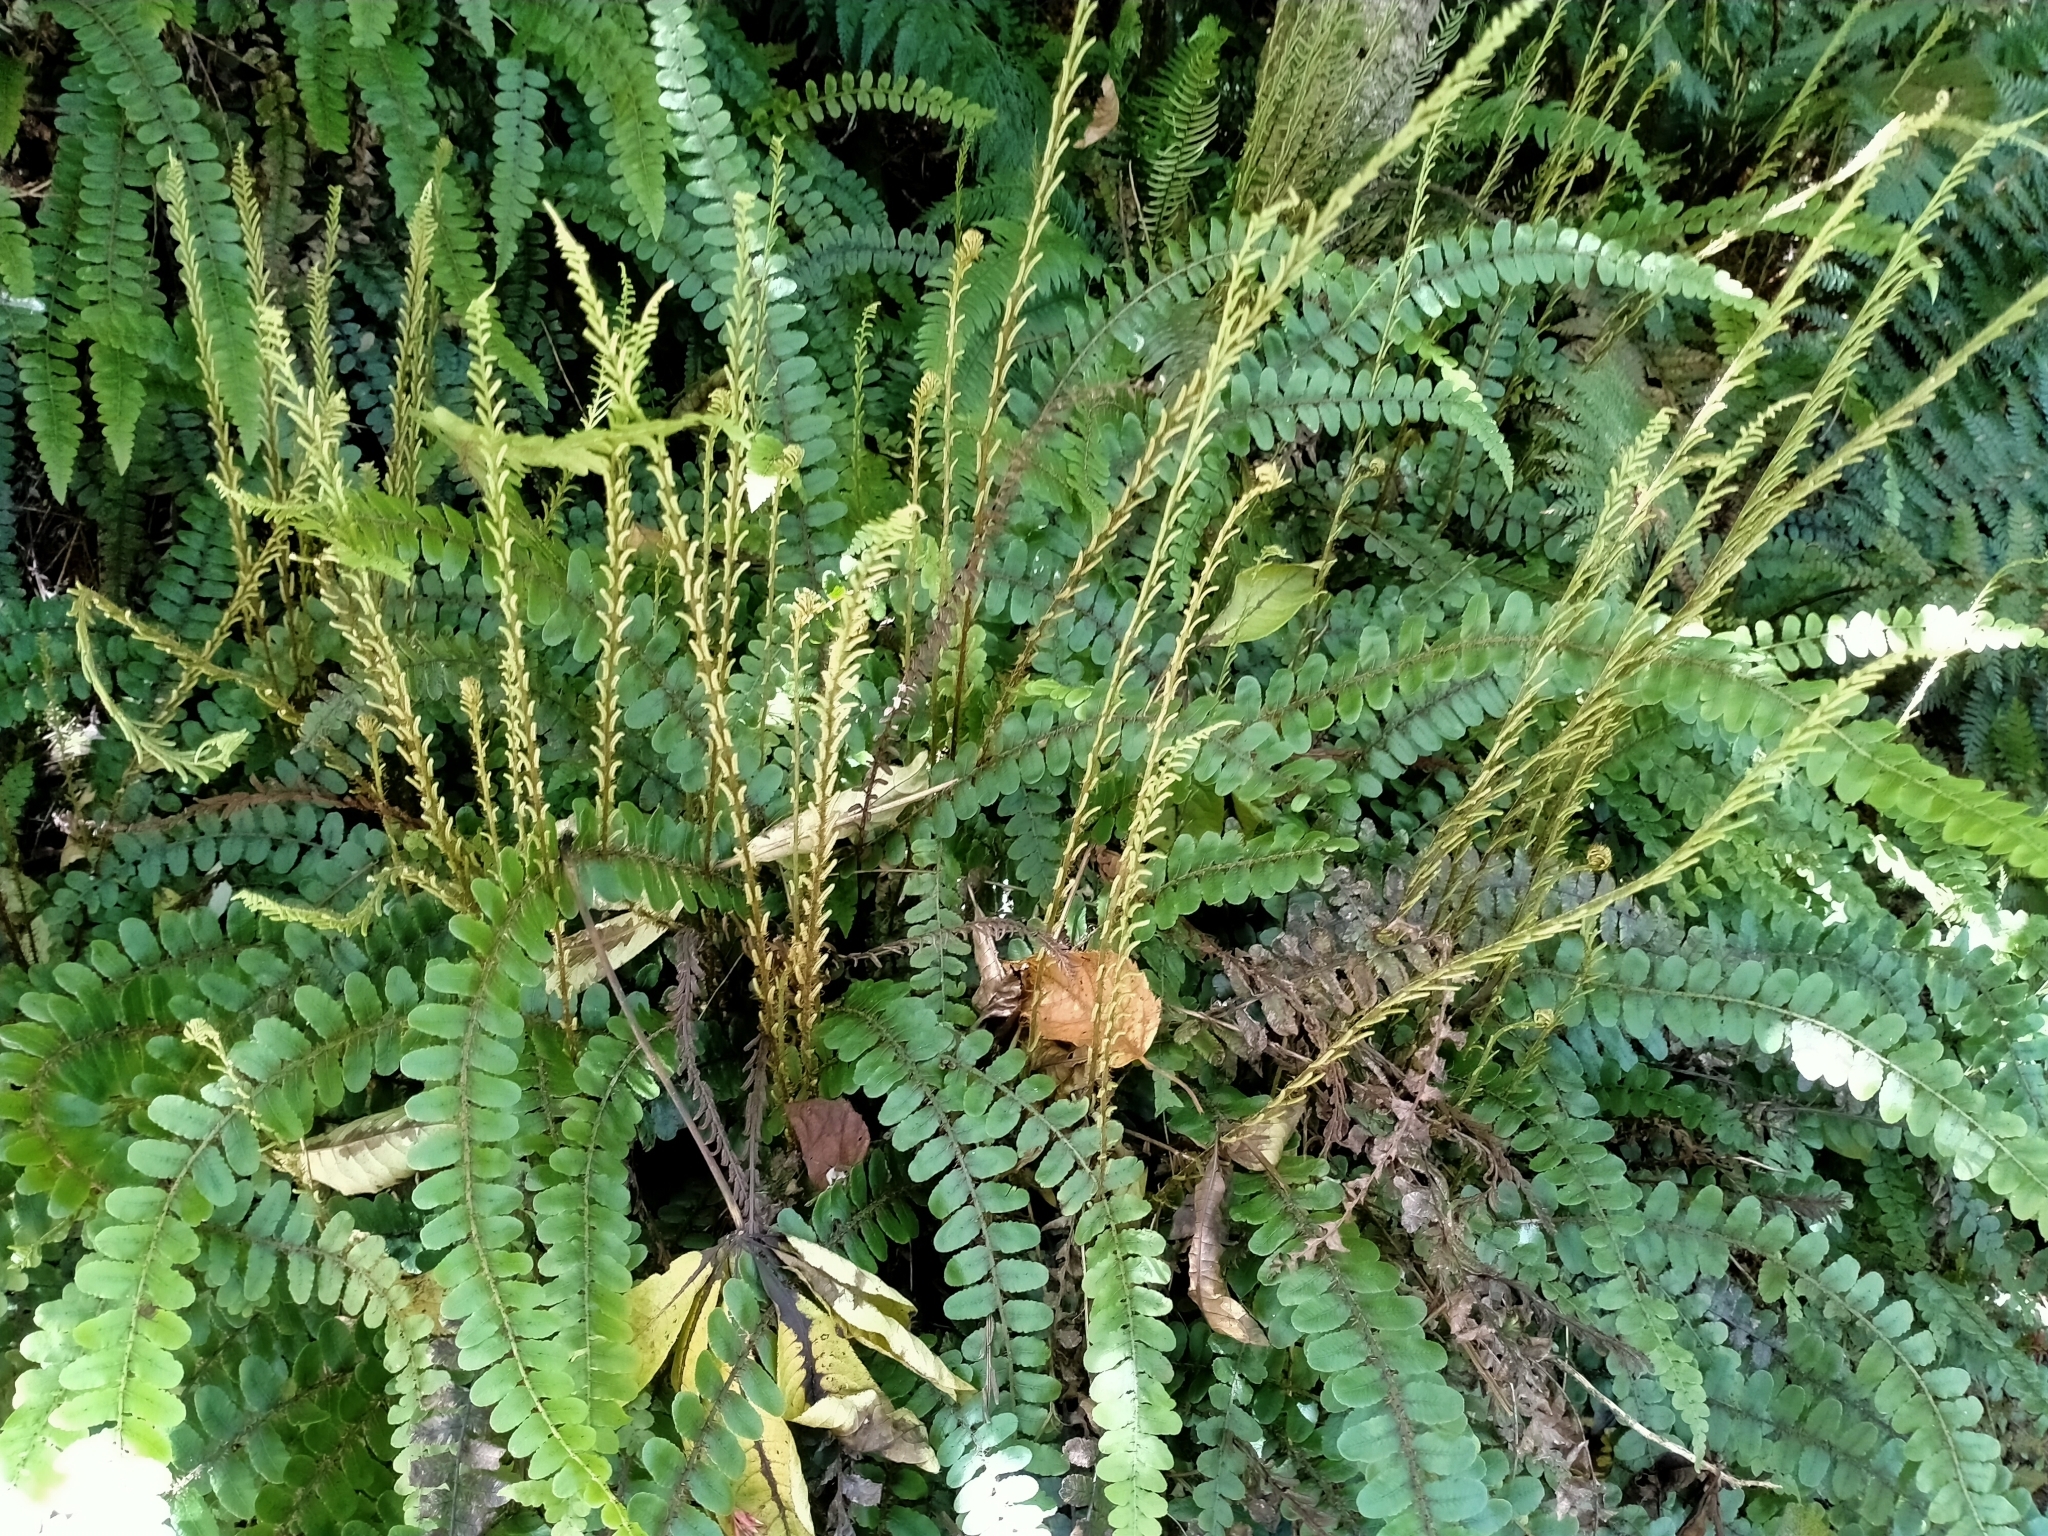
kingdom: Plantae
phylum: Tracheophyta
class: Polypodiopsida
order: Polypodiales
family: Blechnaceae
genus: Cranfillia
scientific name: Cranfillia fluviatilis
